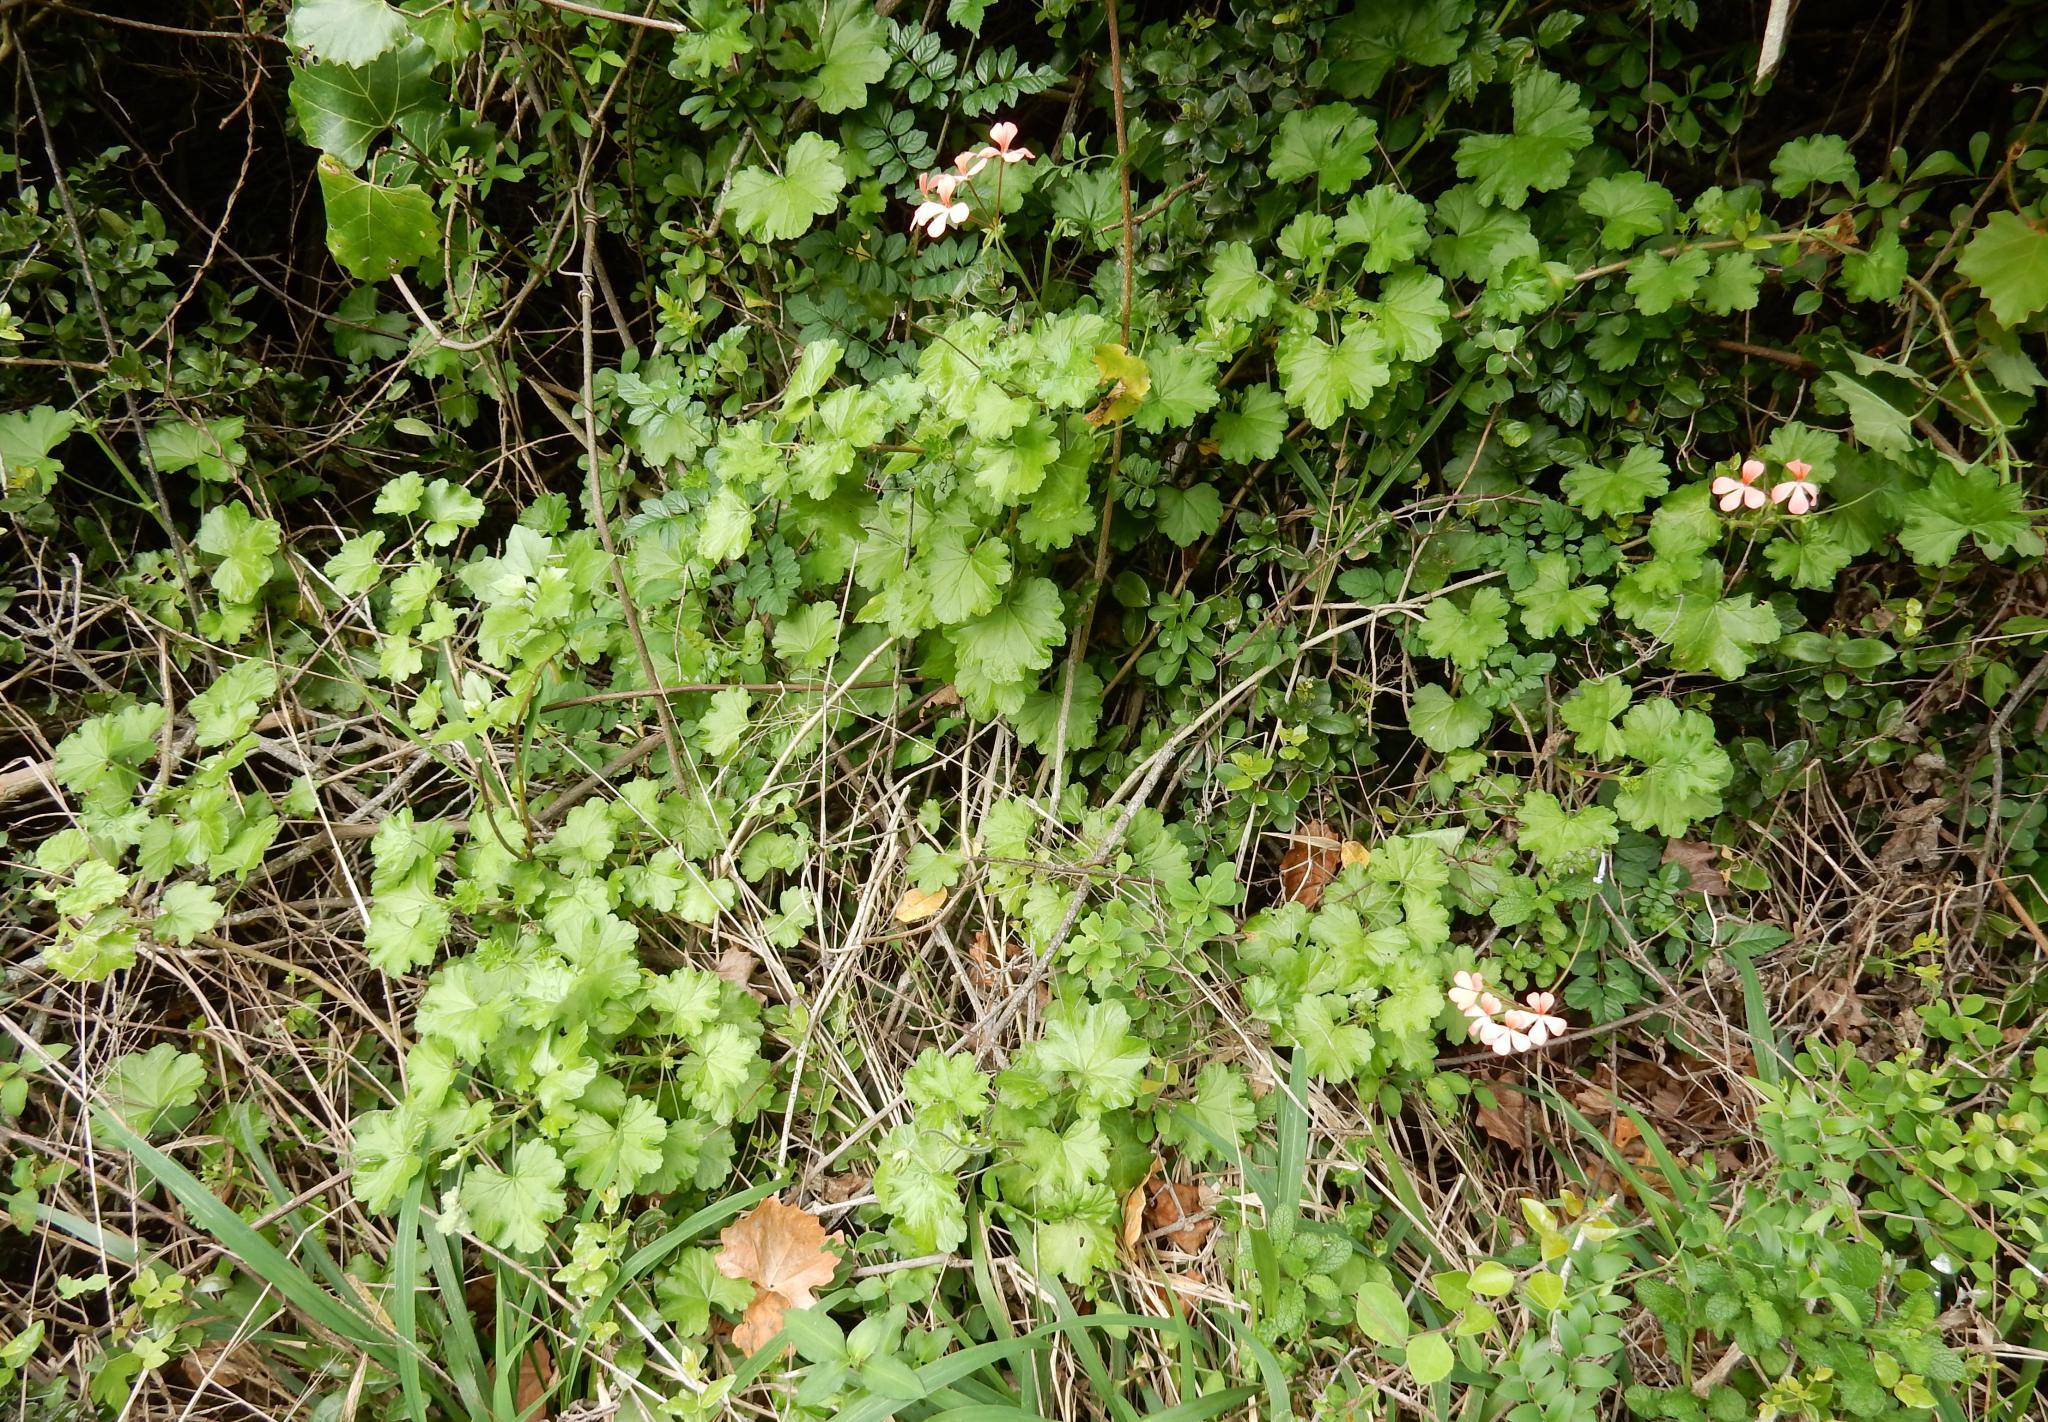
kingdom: Plantae
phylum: Tracheophyta
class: Magnoliopsida
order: Geraniales
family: Geraniaceae
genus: Pelargonium
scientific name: Pelargonium frutetorum
